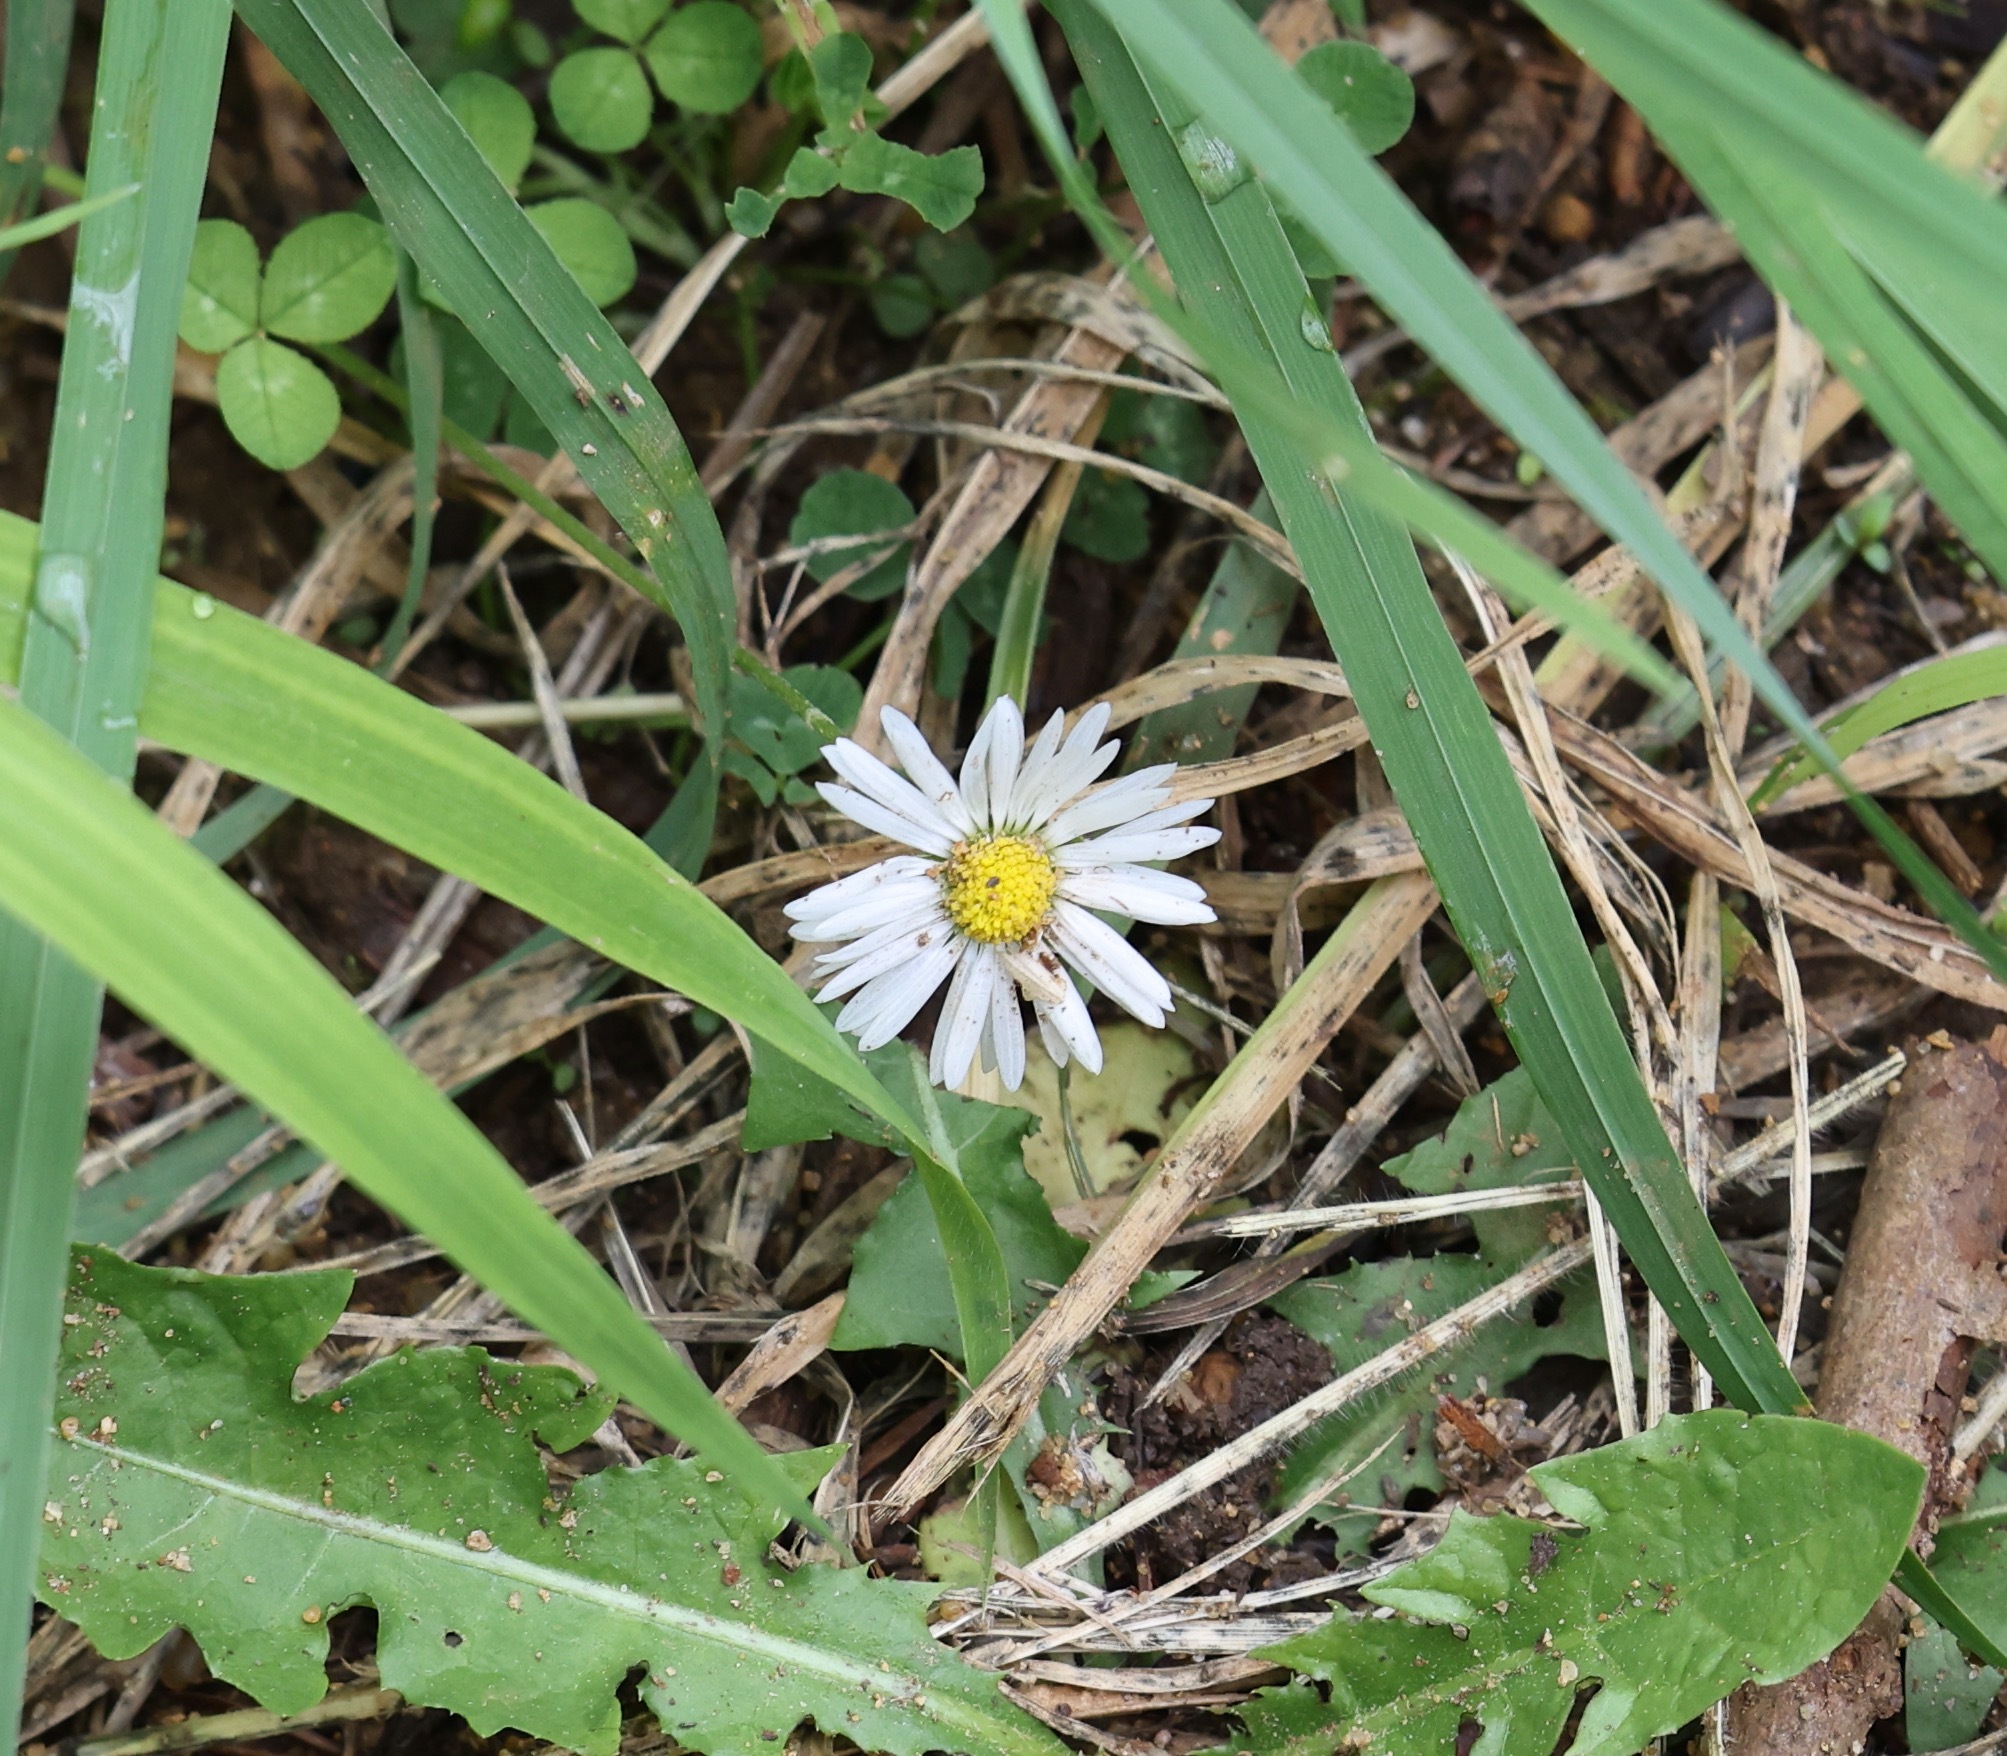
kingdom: Plantae
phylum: Tracheophyta
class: Magnoliopsida
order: Asterales
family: Asteraceae
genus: Bellis
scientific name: Bellis perennis
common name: Lawndaisy
